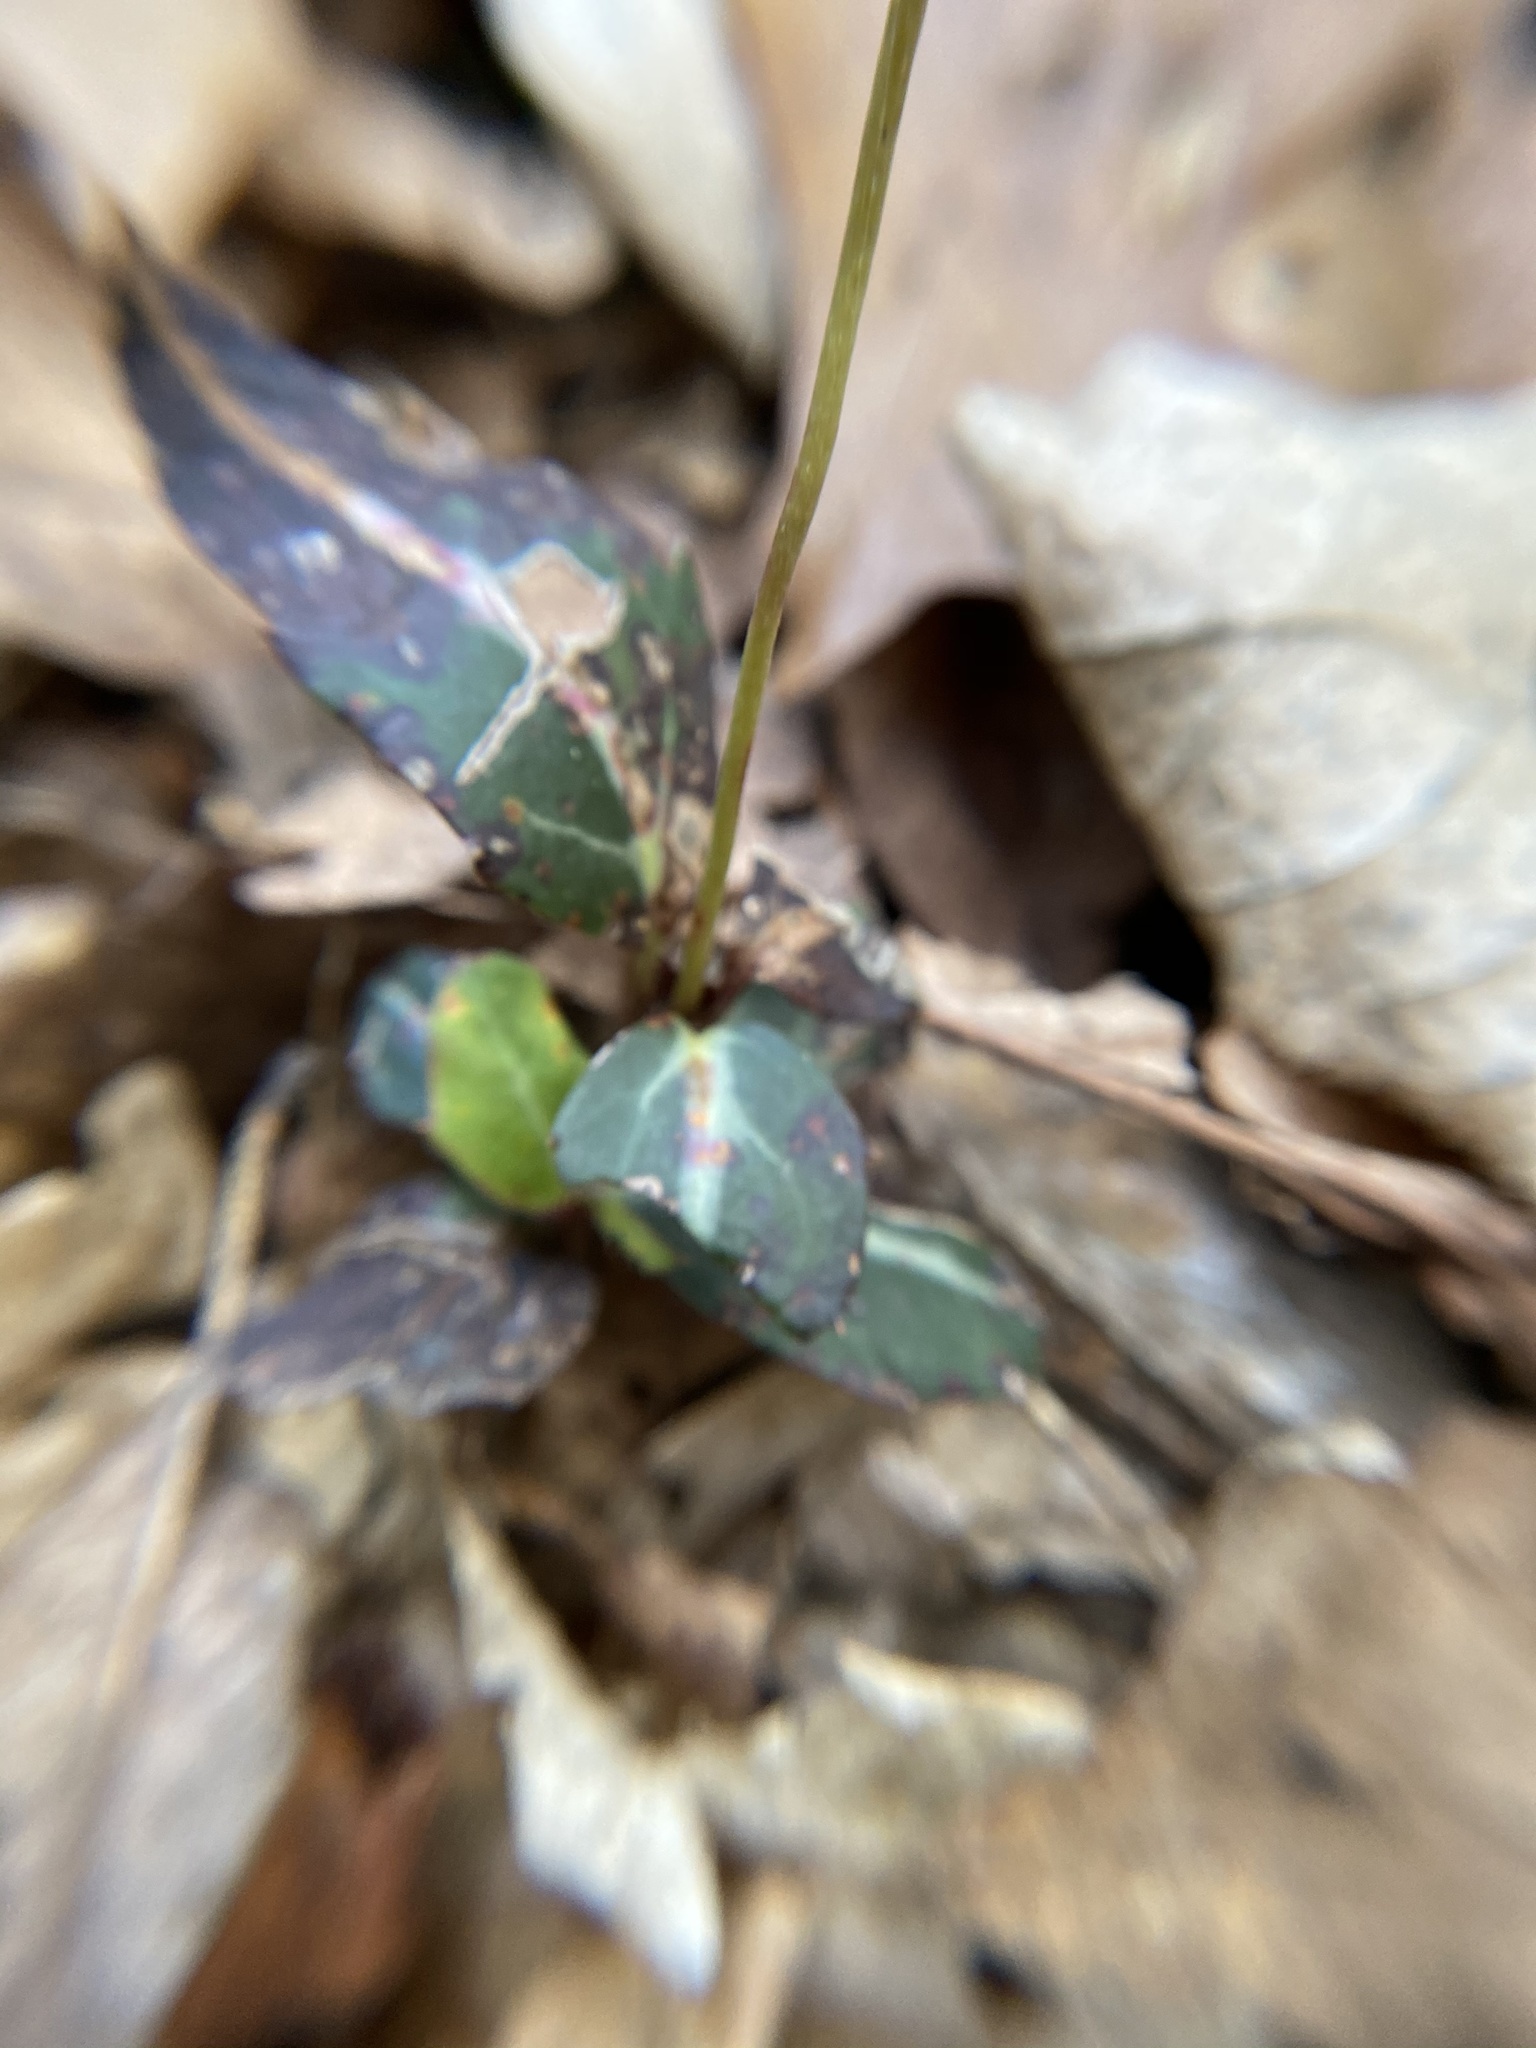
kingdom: Plantae
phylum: Tracheophyta
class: Magnoliopsida
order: Ericales
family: Ericaceae
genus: Chimaphila
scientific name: Chimaphila maculata
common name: Spotted pipsissewa
